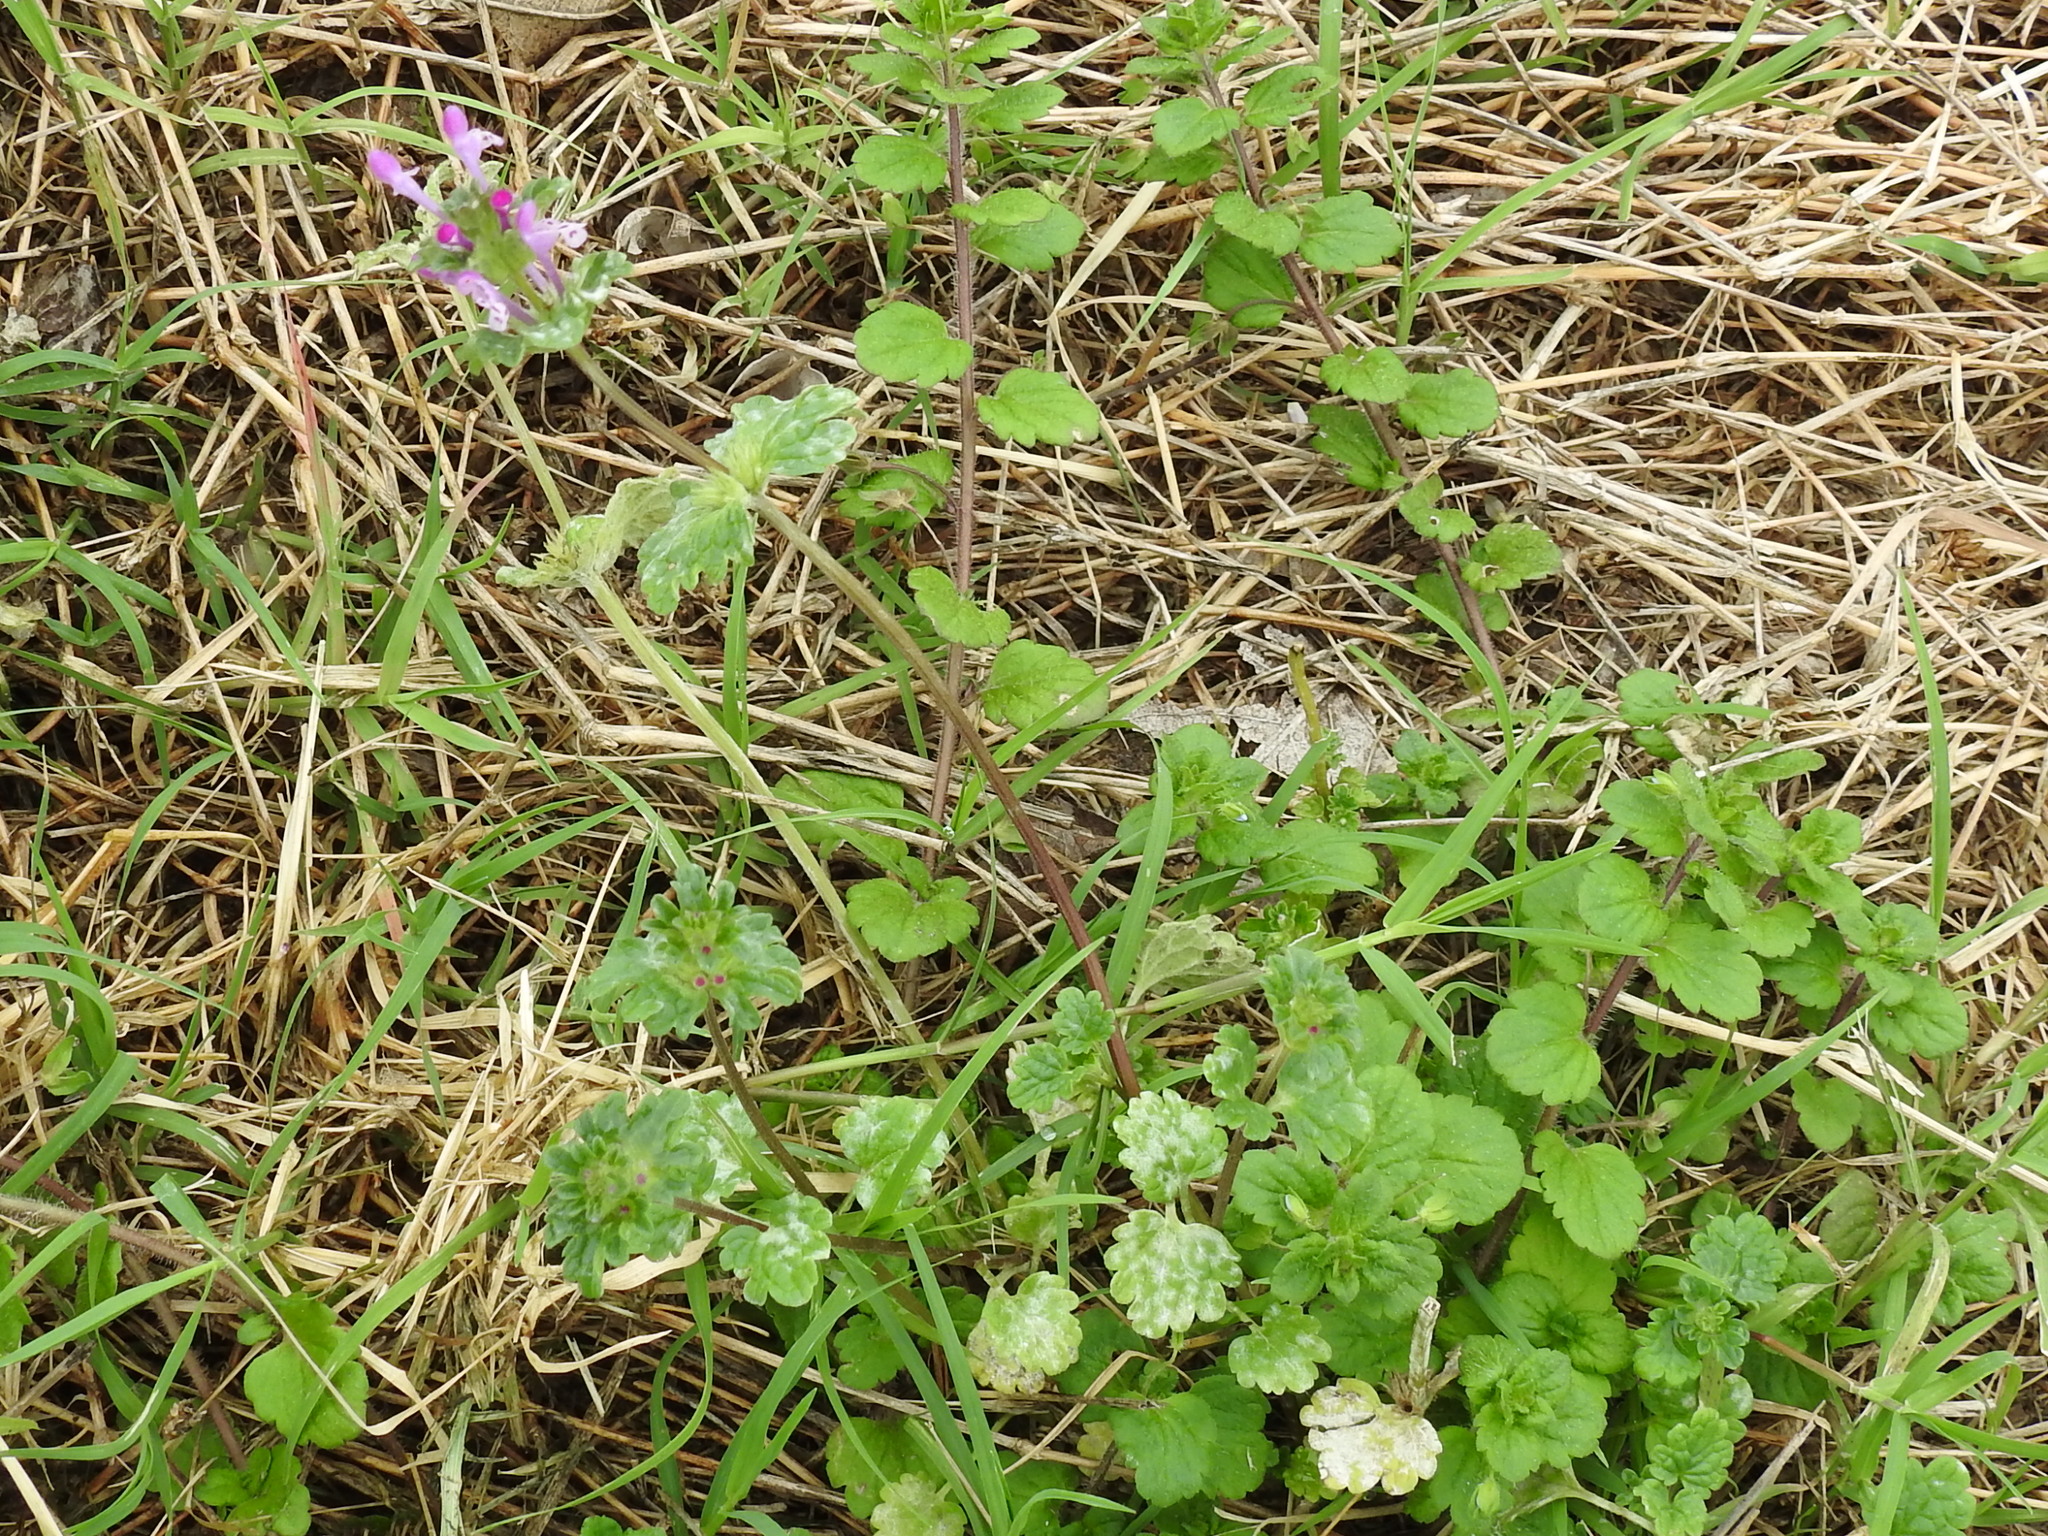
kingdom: Plantae
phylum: Tracheophyta
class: Magnoliopsida
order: Lamiales
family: Lamiaceae
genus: Lamium
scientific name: Lamium amplexicaule
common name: Henbit dead-nettle
